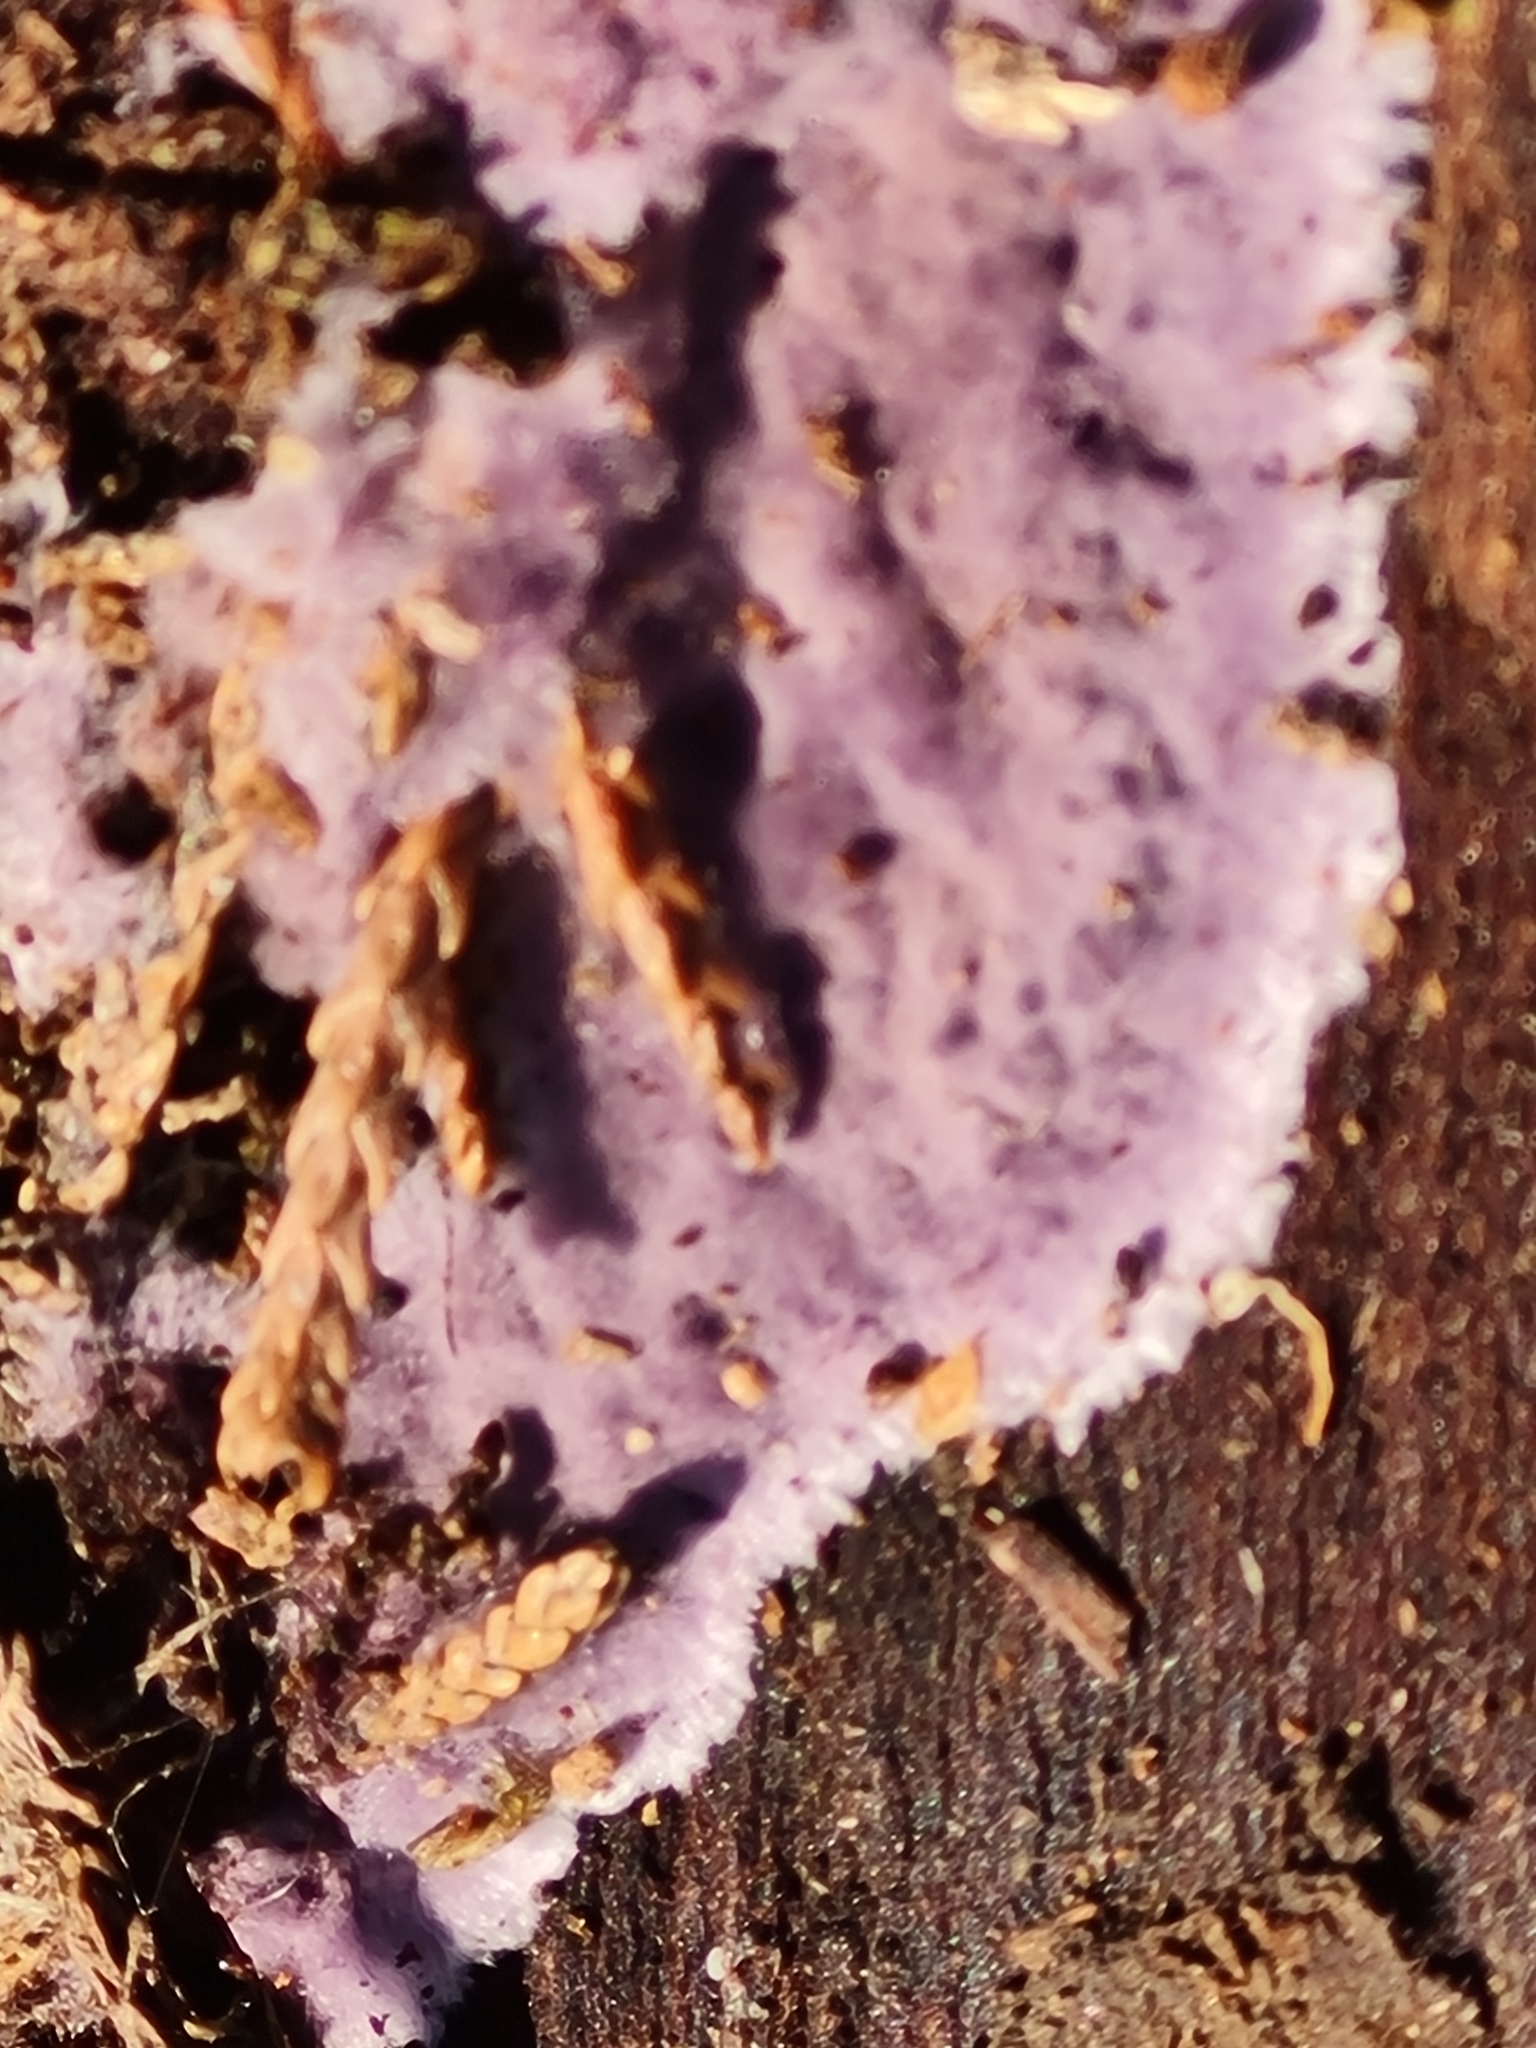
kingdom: Fungi
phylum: Basidiomycota
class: Agaricomycetes
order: Polyporales
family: Irpicaceae
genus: Byssomerulius
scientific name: Byssomerulius psittacinus
